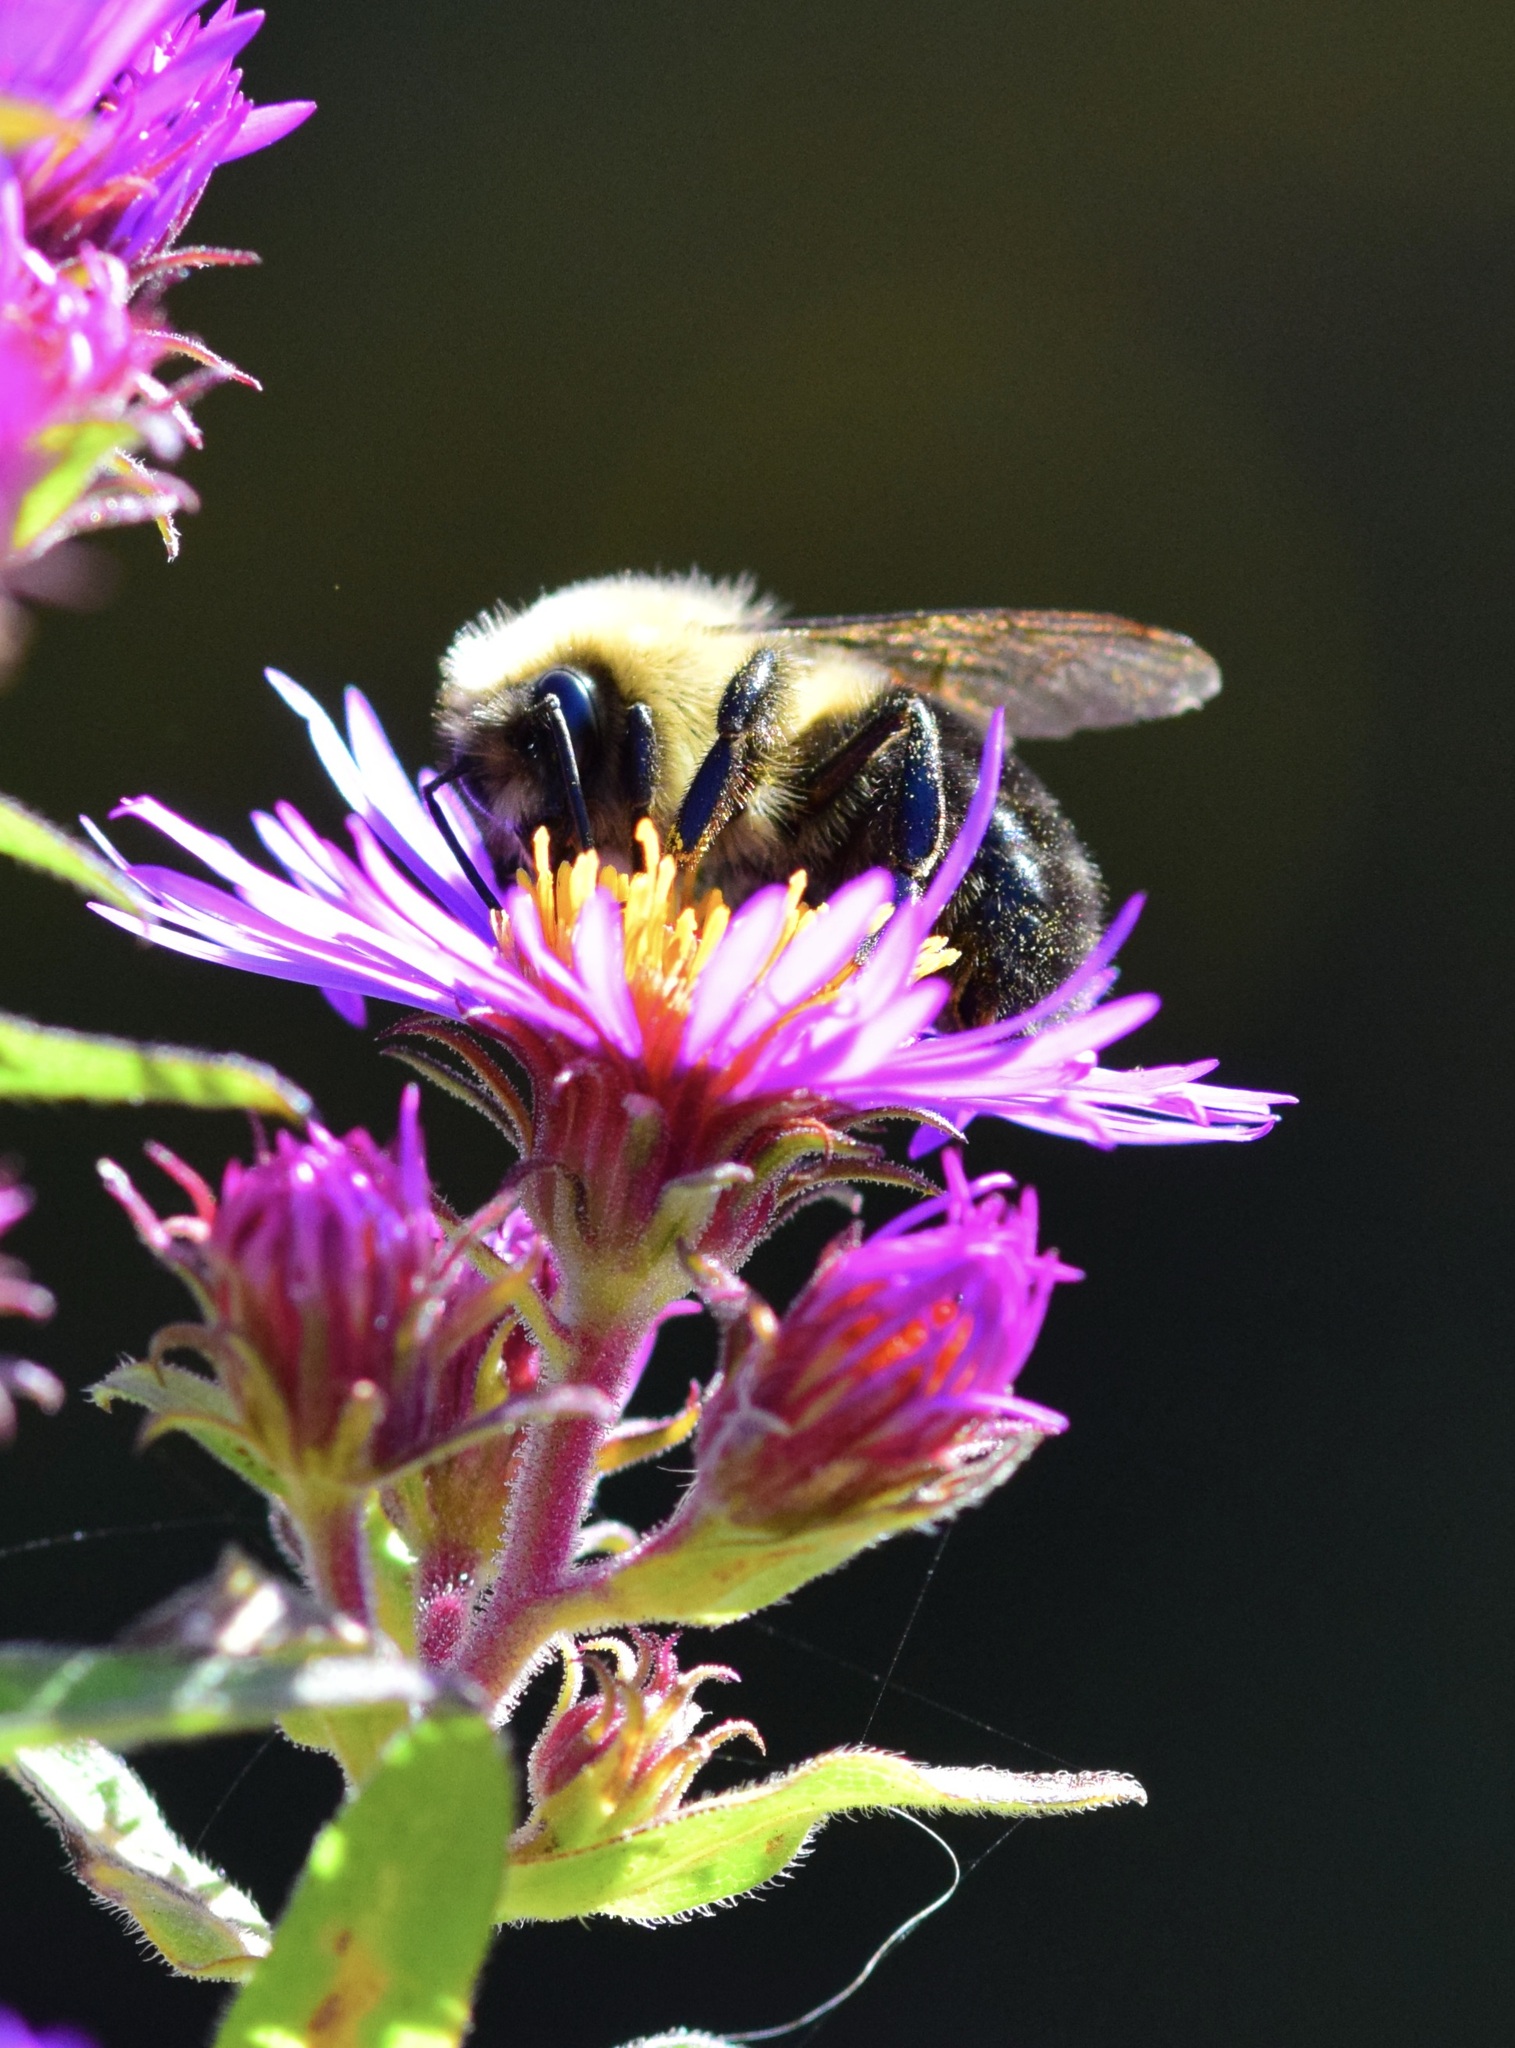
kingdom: Animalia
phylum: Arthropoda
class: Insecta
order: Hymenoptera
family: Apidae
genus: Bombus
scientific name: Bombus impatiens
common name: Common eastern bumble bee
